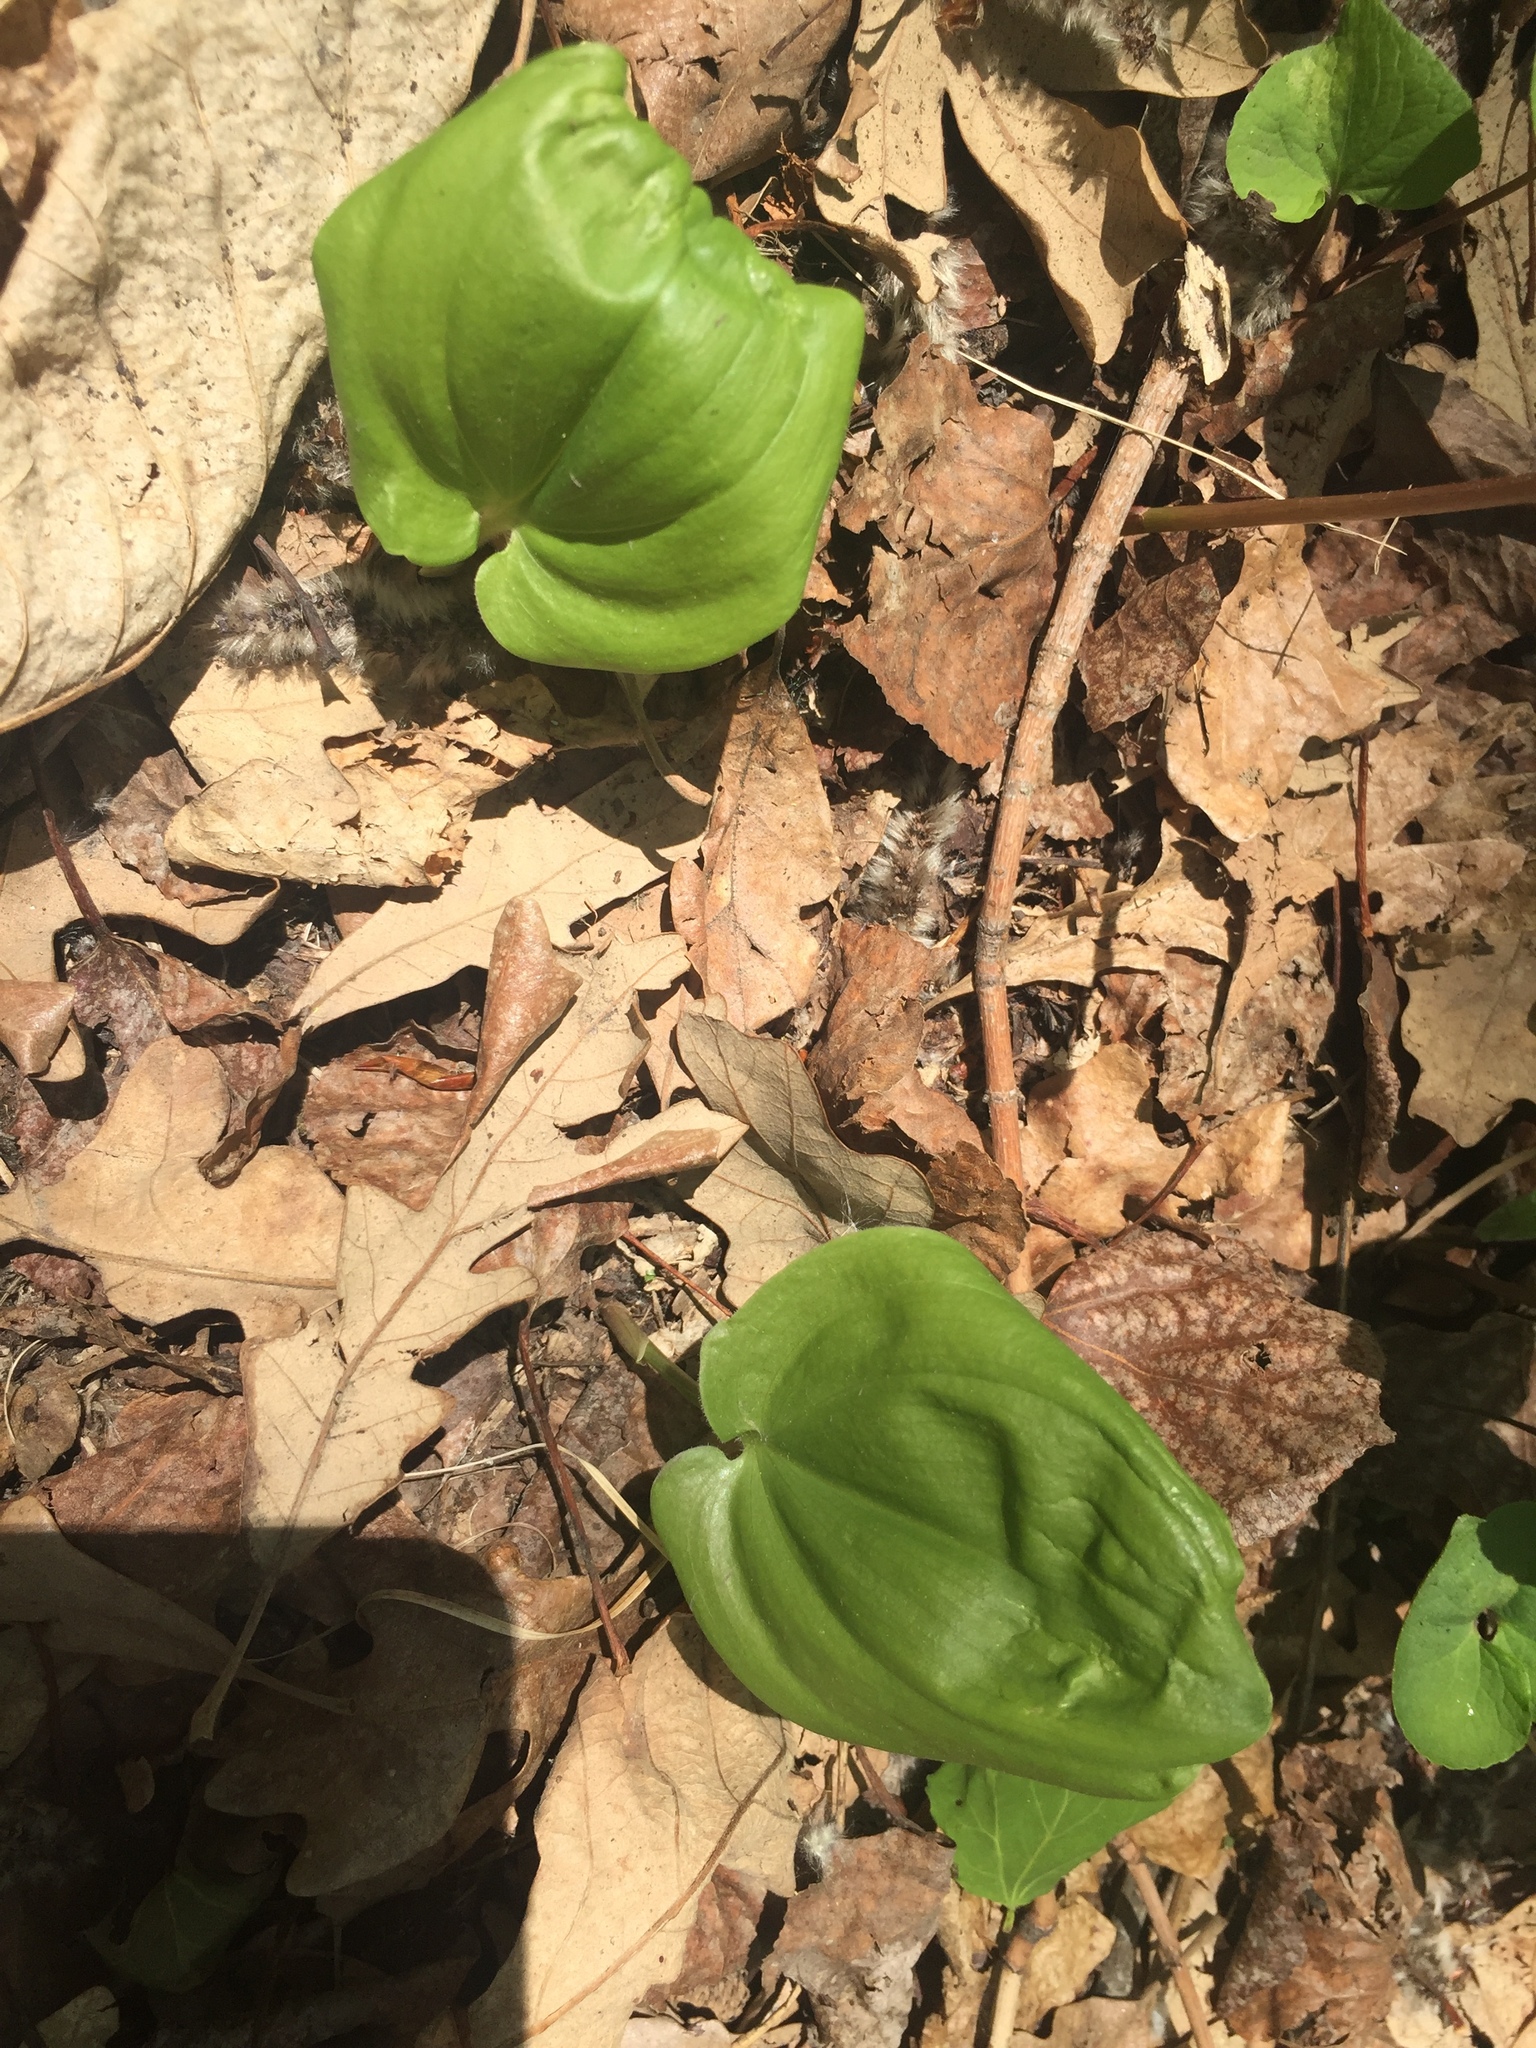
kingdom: Plantae
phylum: Tracheophyta
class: Liliopsida
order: Asparagales
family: Asparagaceae
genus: Maianthemum
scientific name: Maianthemum canadense
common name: False lily-of-the-valley
